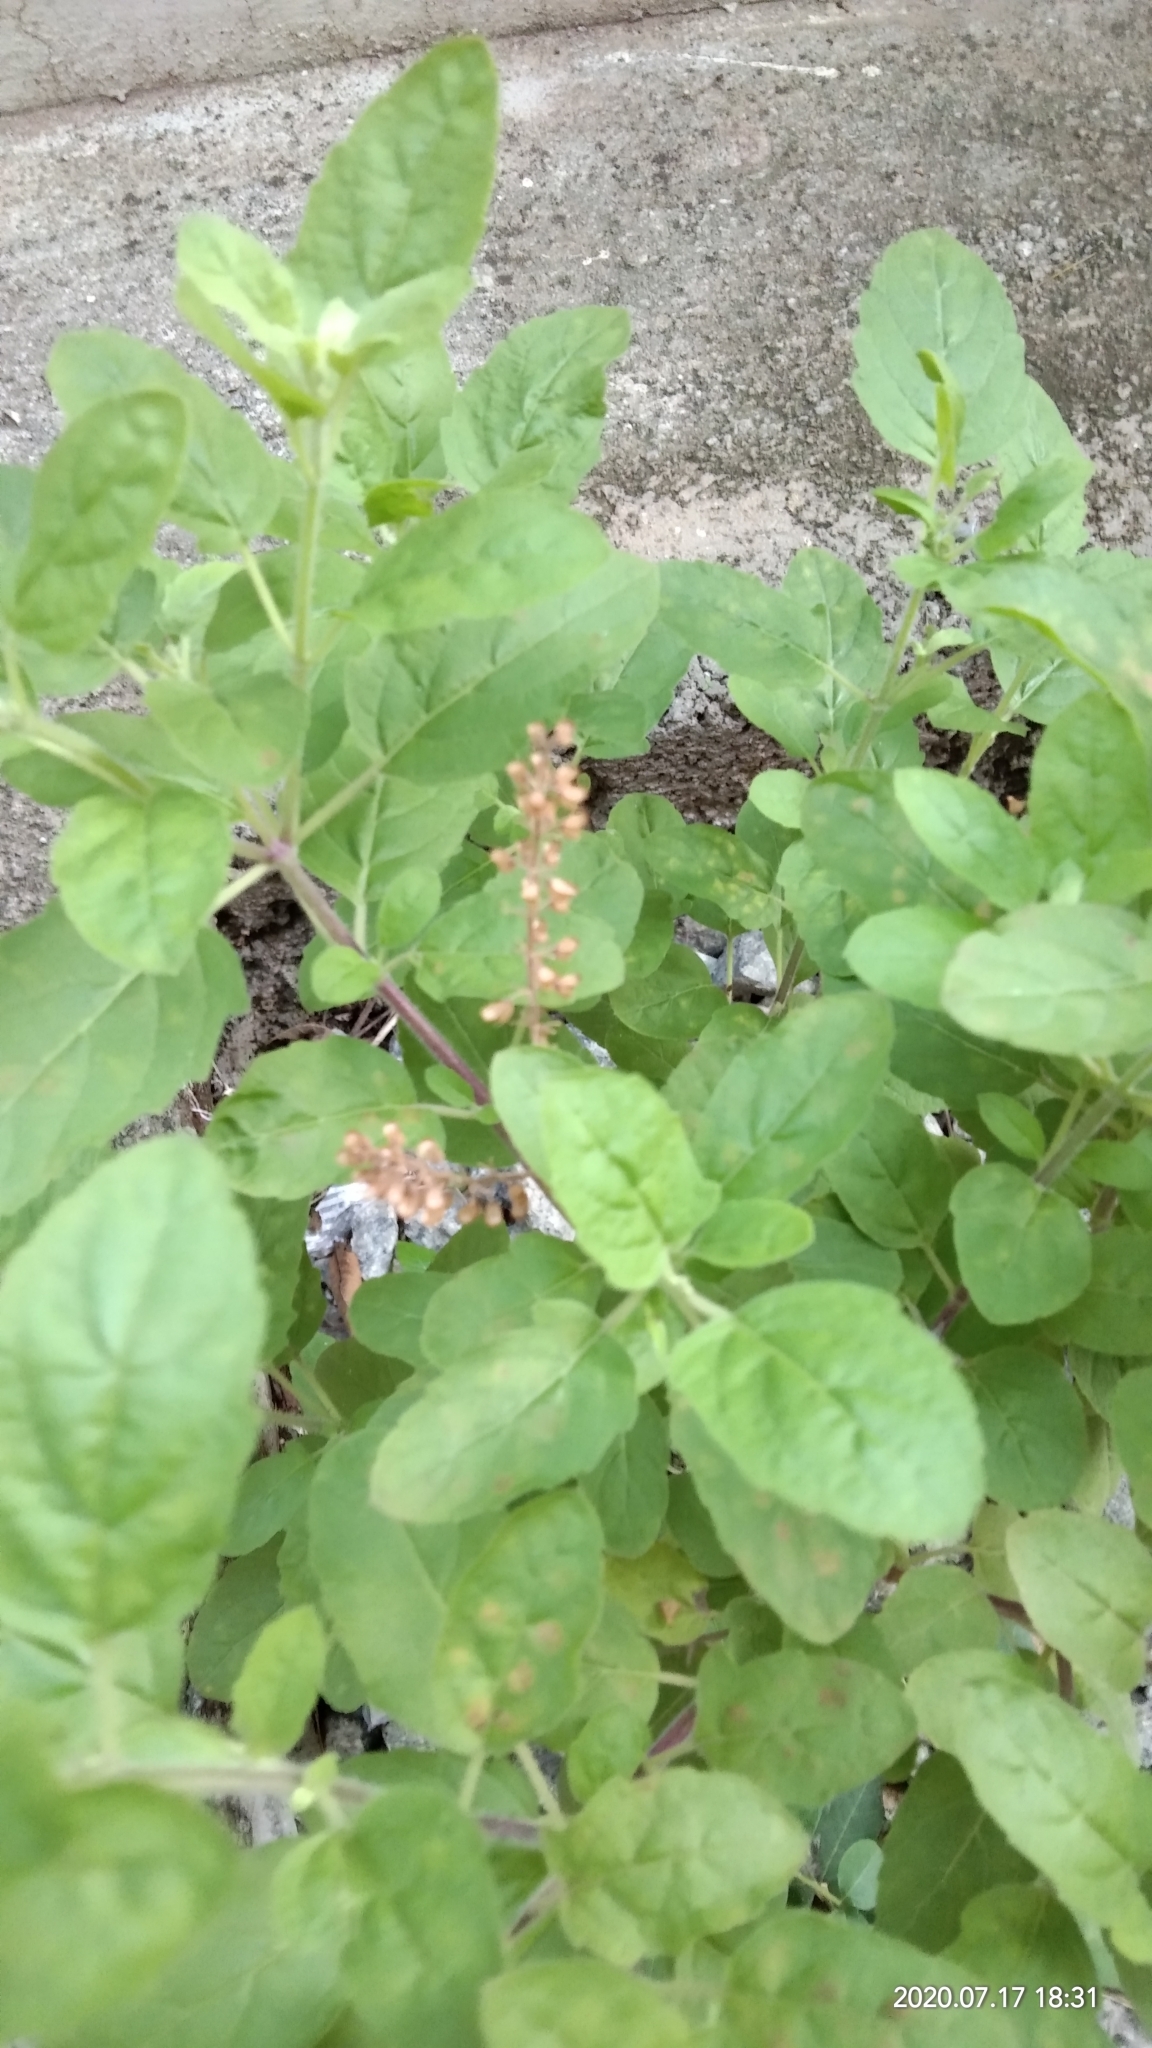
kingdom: Plantae
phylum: Tracheophyta
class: Magnoliopsida
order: Lamiales
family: Lamiaceae
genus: Ocimum
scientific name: Ocimum tenuiflorum
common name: Sacred basil
